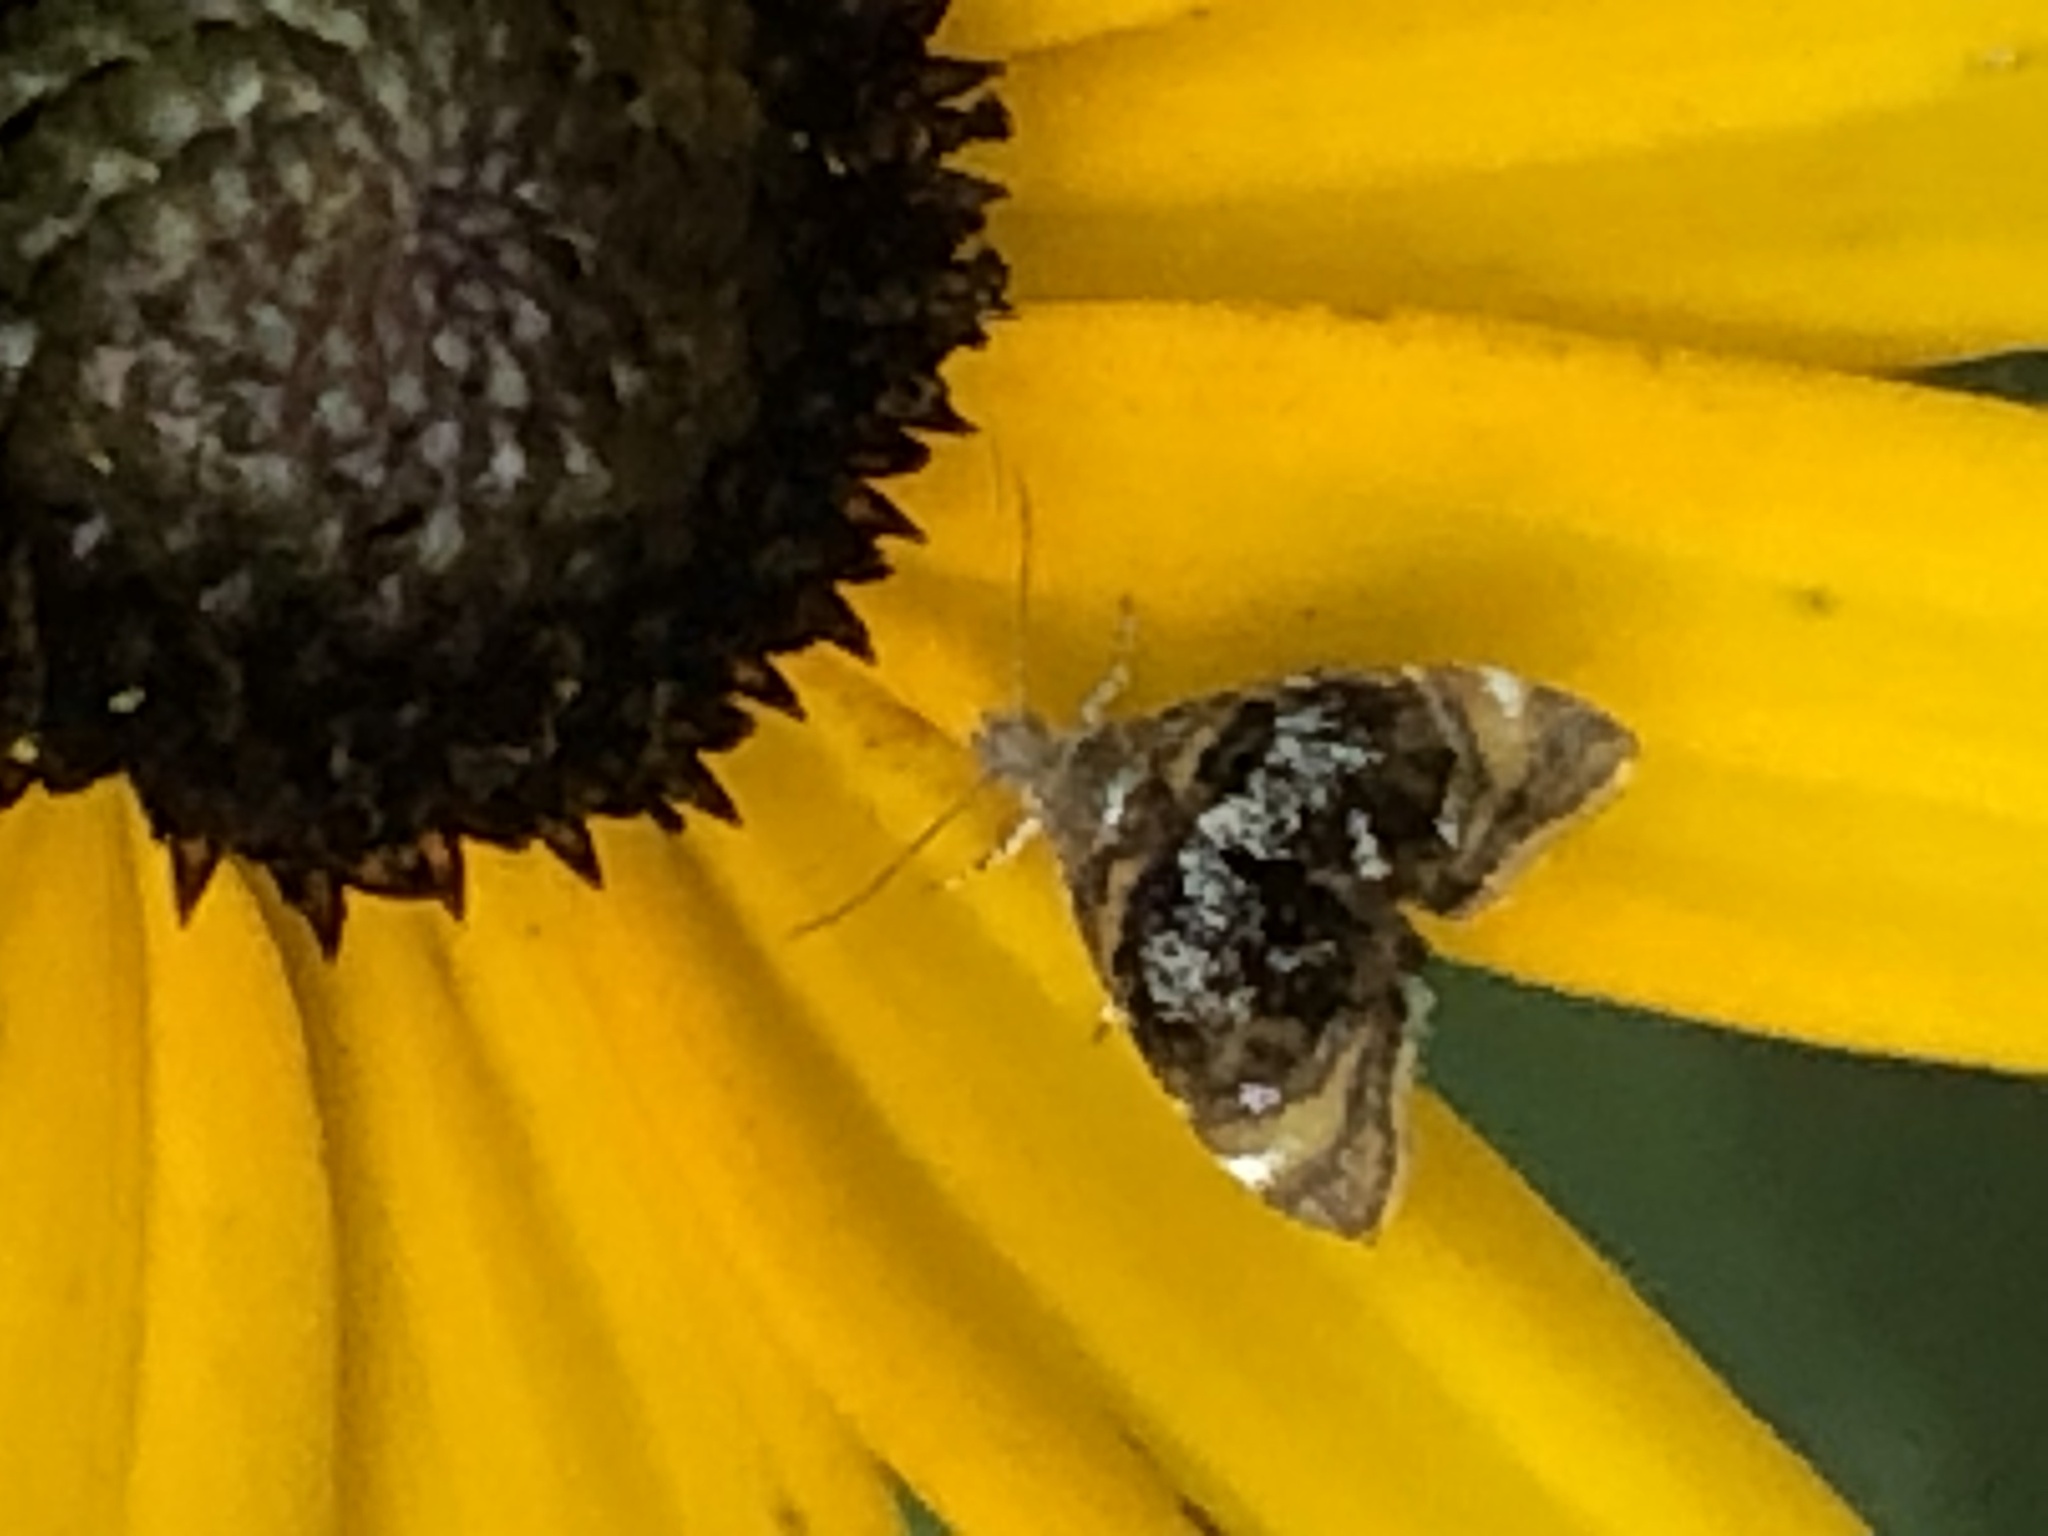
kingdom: Animalia
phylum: Arthropoda
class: Insecta
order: Lepidoptera
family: Choreutidae
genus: Prochoreutis
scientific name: Prochoreutis inflatella
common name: Skullcap skeletonizer moth
